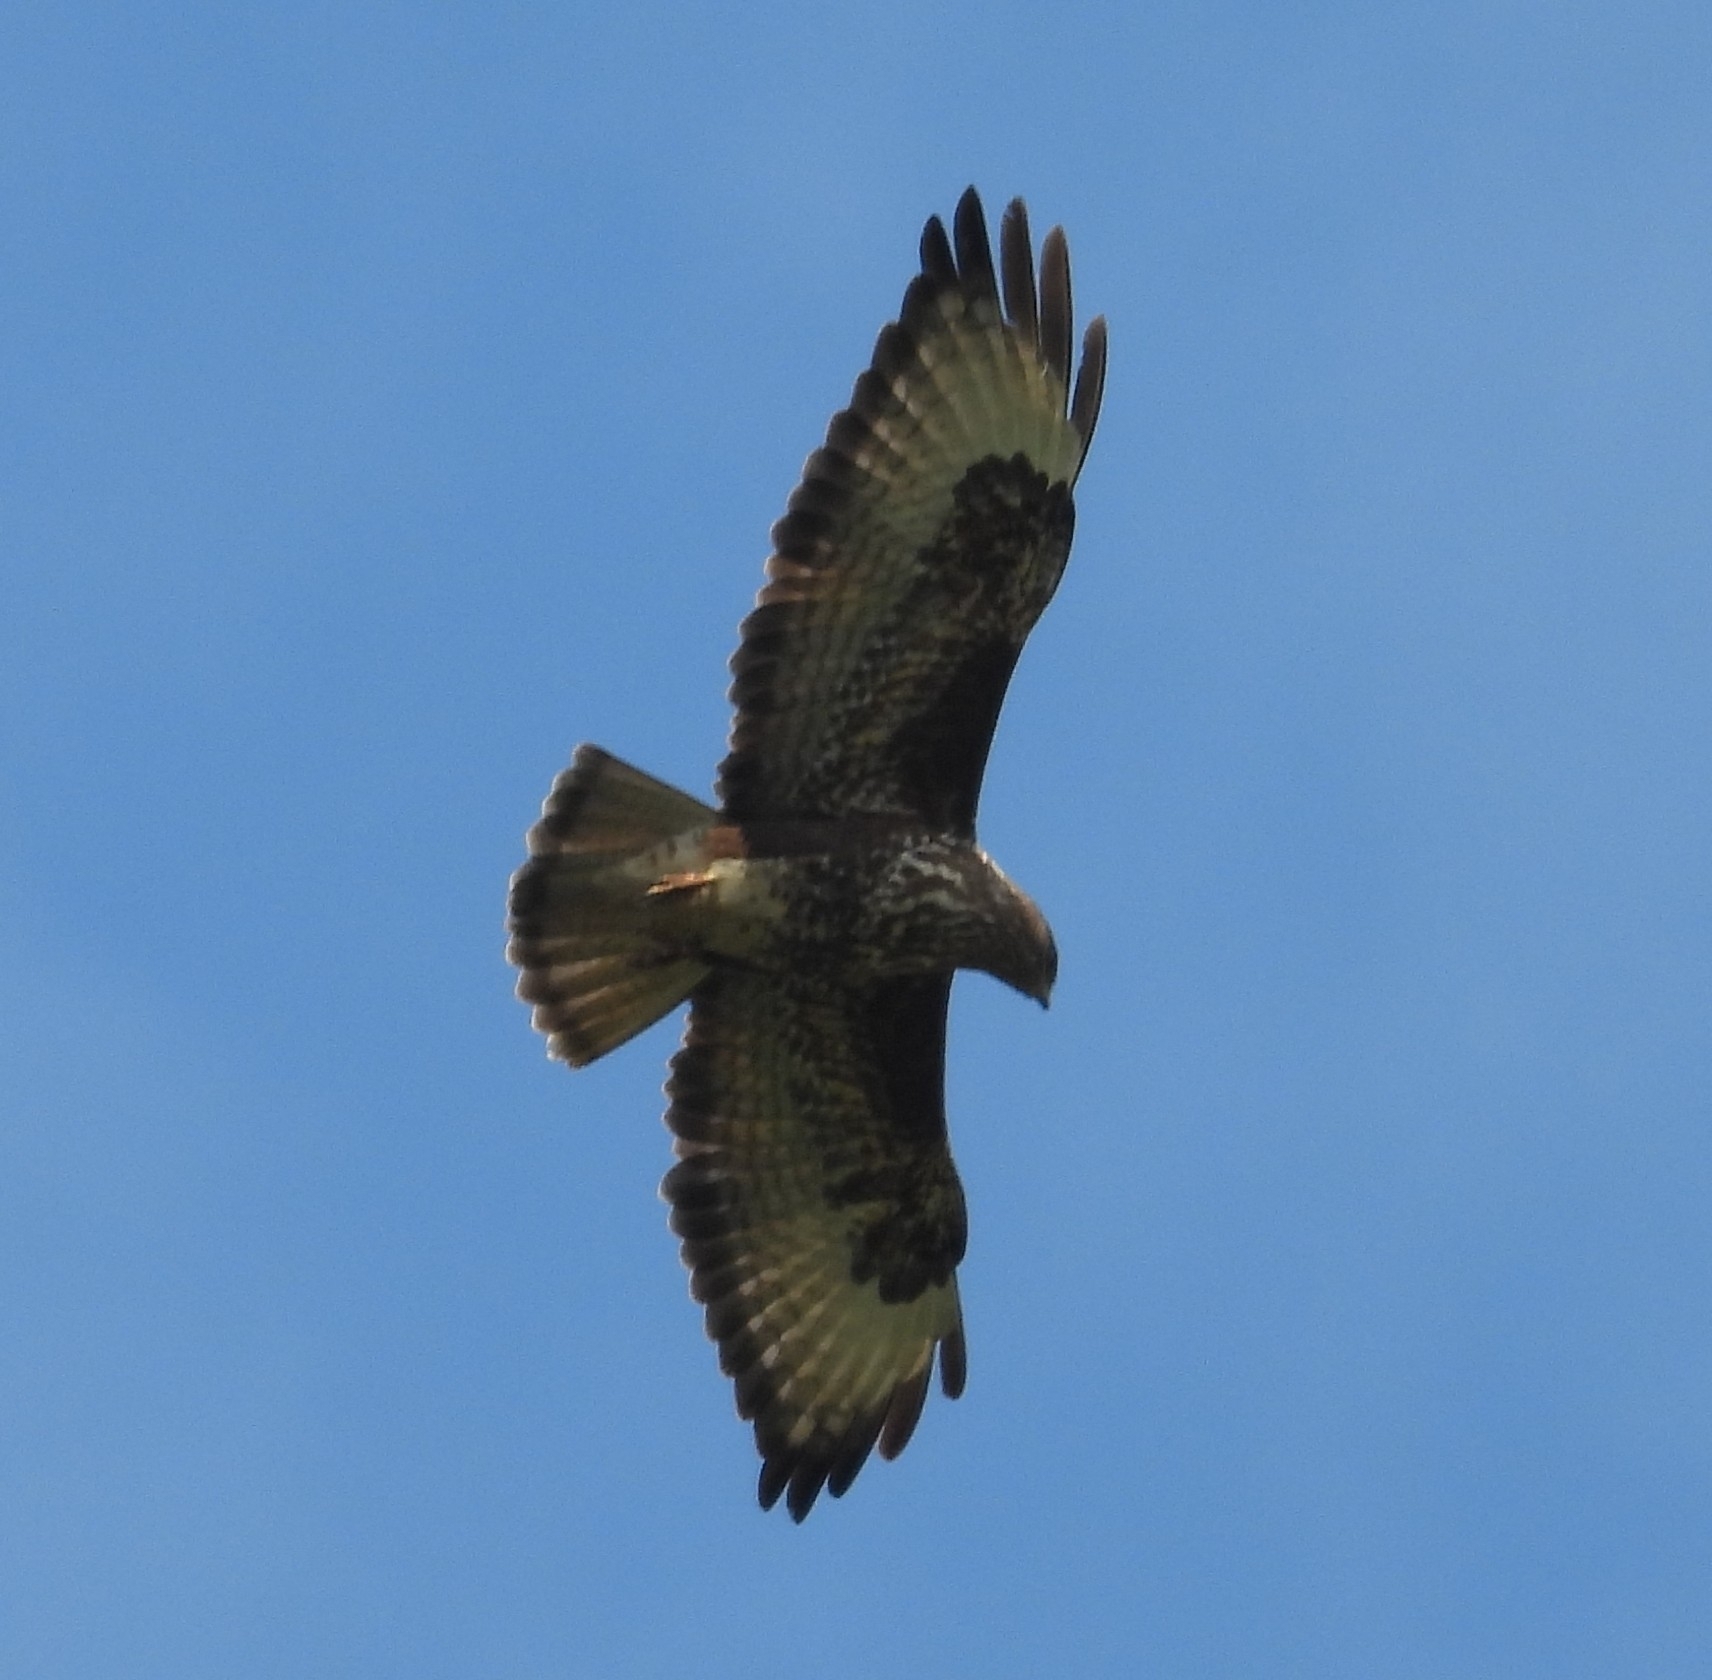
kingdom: Animalia
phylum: Chordata
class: Aves
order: Accipitriformes
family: Accipitridae
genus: Buteo
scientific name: Buteo buteo
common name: Common buzzard
